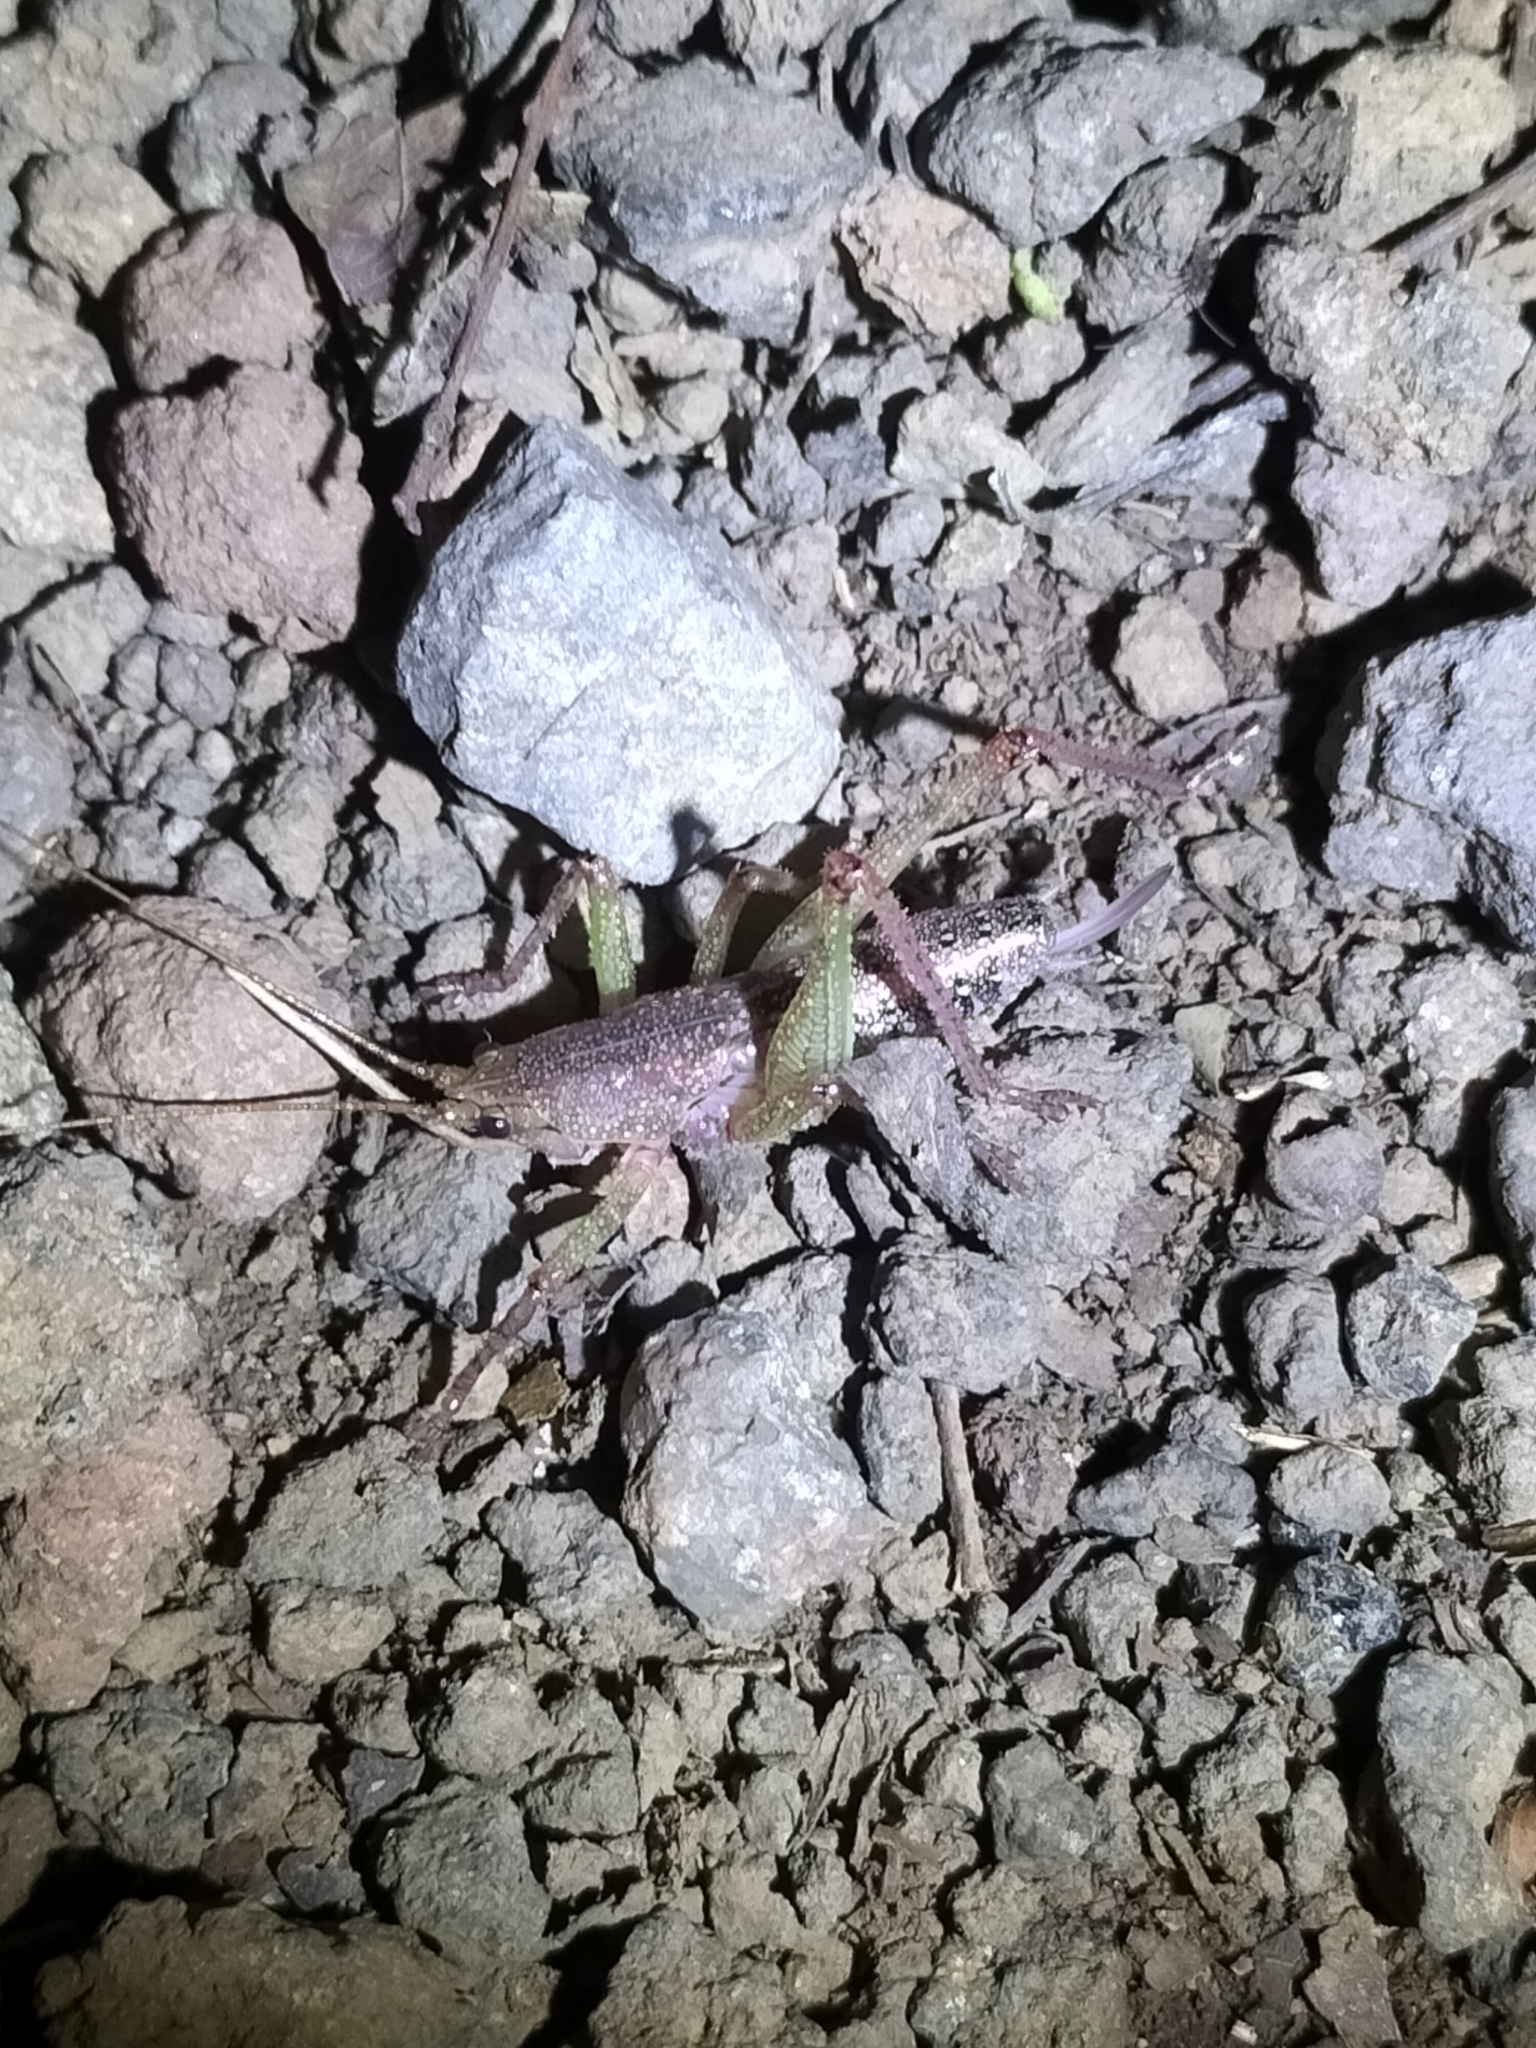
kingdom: Animalia
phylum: Arthropoda
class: Insecta
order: Orthoptera
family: Tettigoniidae
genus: Austrosalomona
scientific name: Austrosalomona destructor
